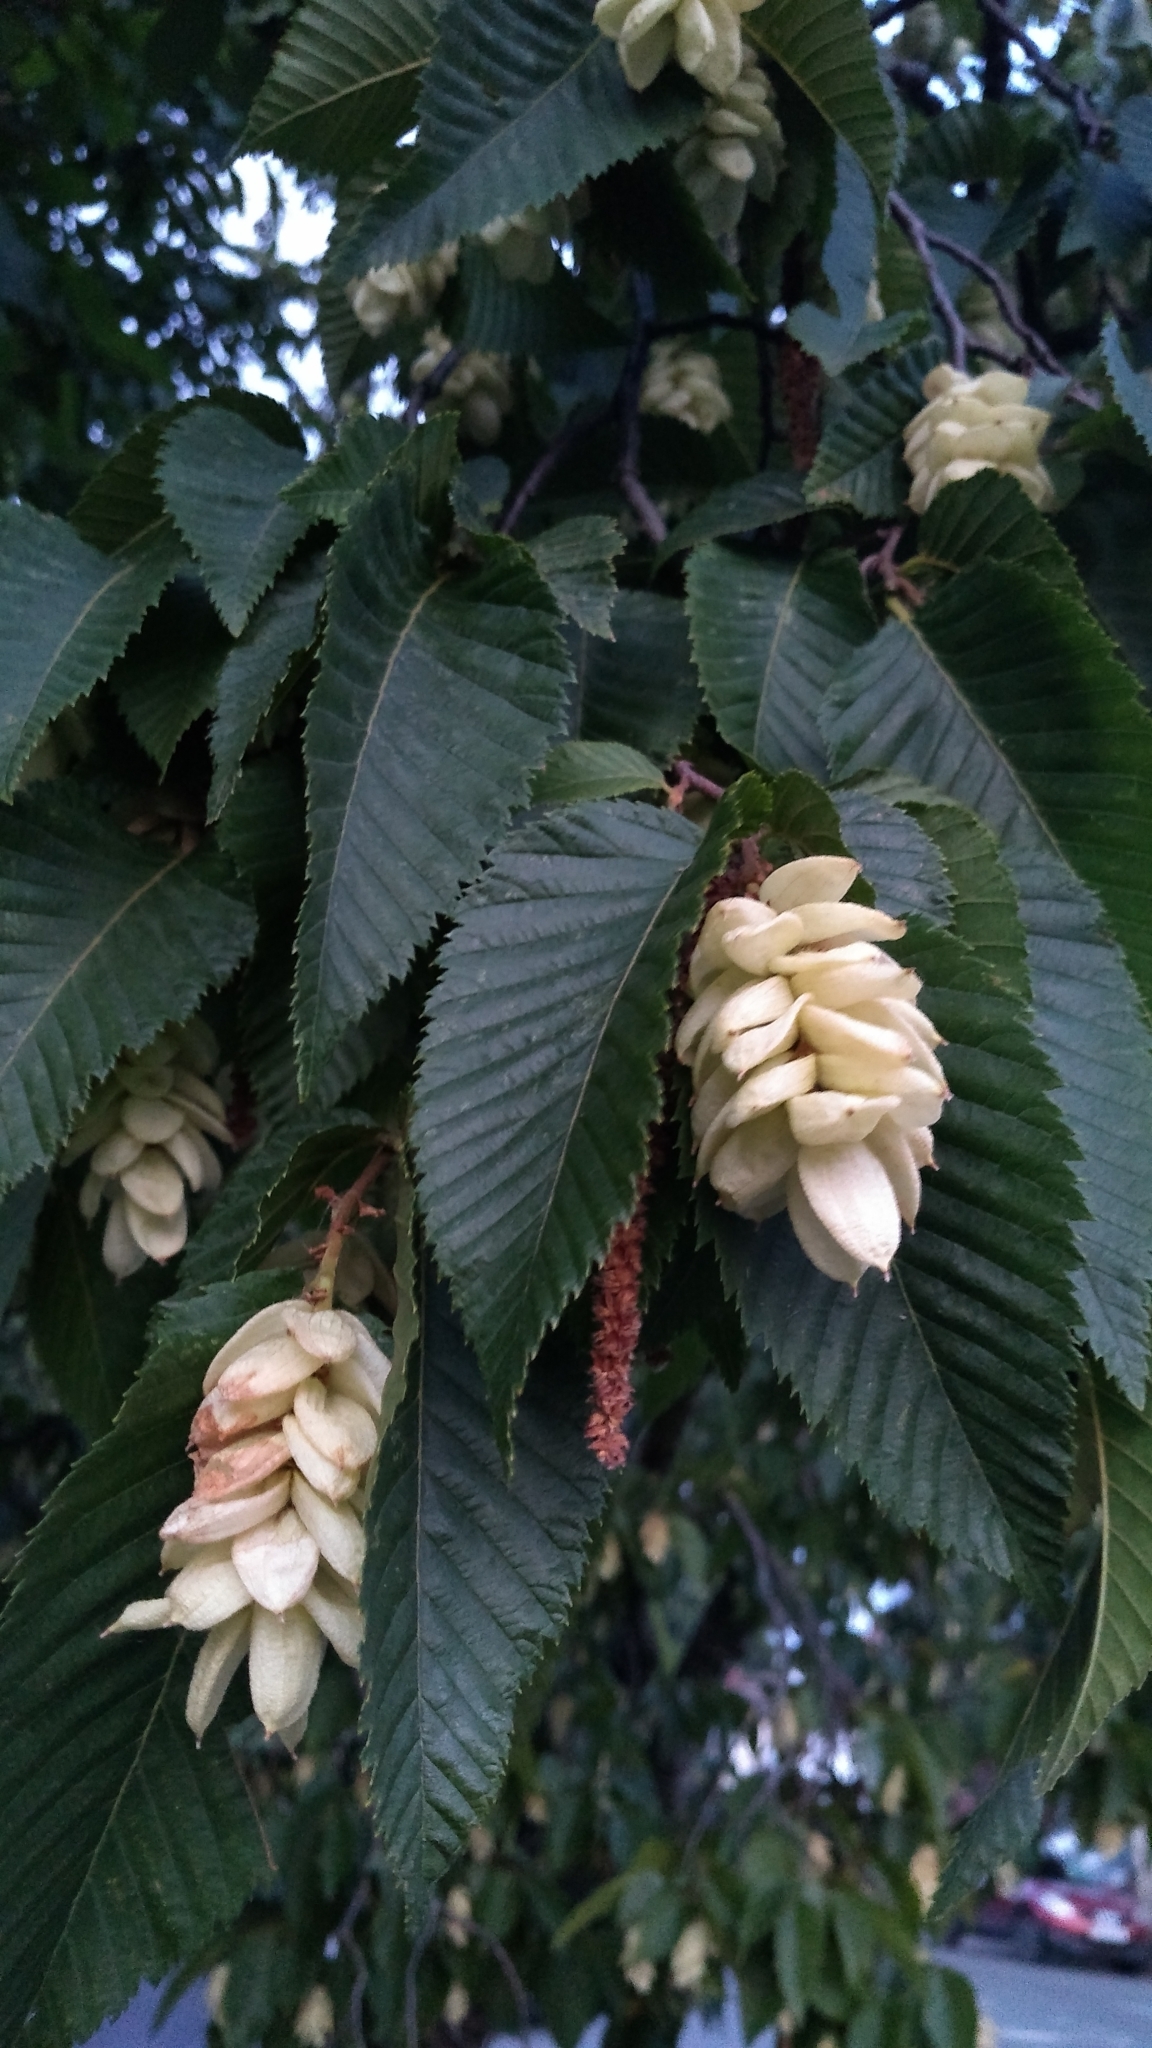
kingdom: Plantae
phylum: Tracheophyta
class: Magnoliopsida
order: Fagales
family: Betulaceae
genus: Ostrya
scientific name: Ostrya carpinifolia
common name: European hop-hornbeam
